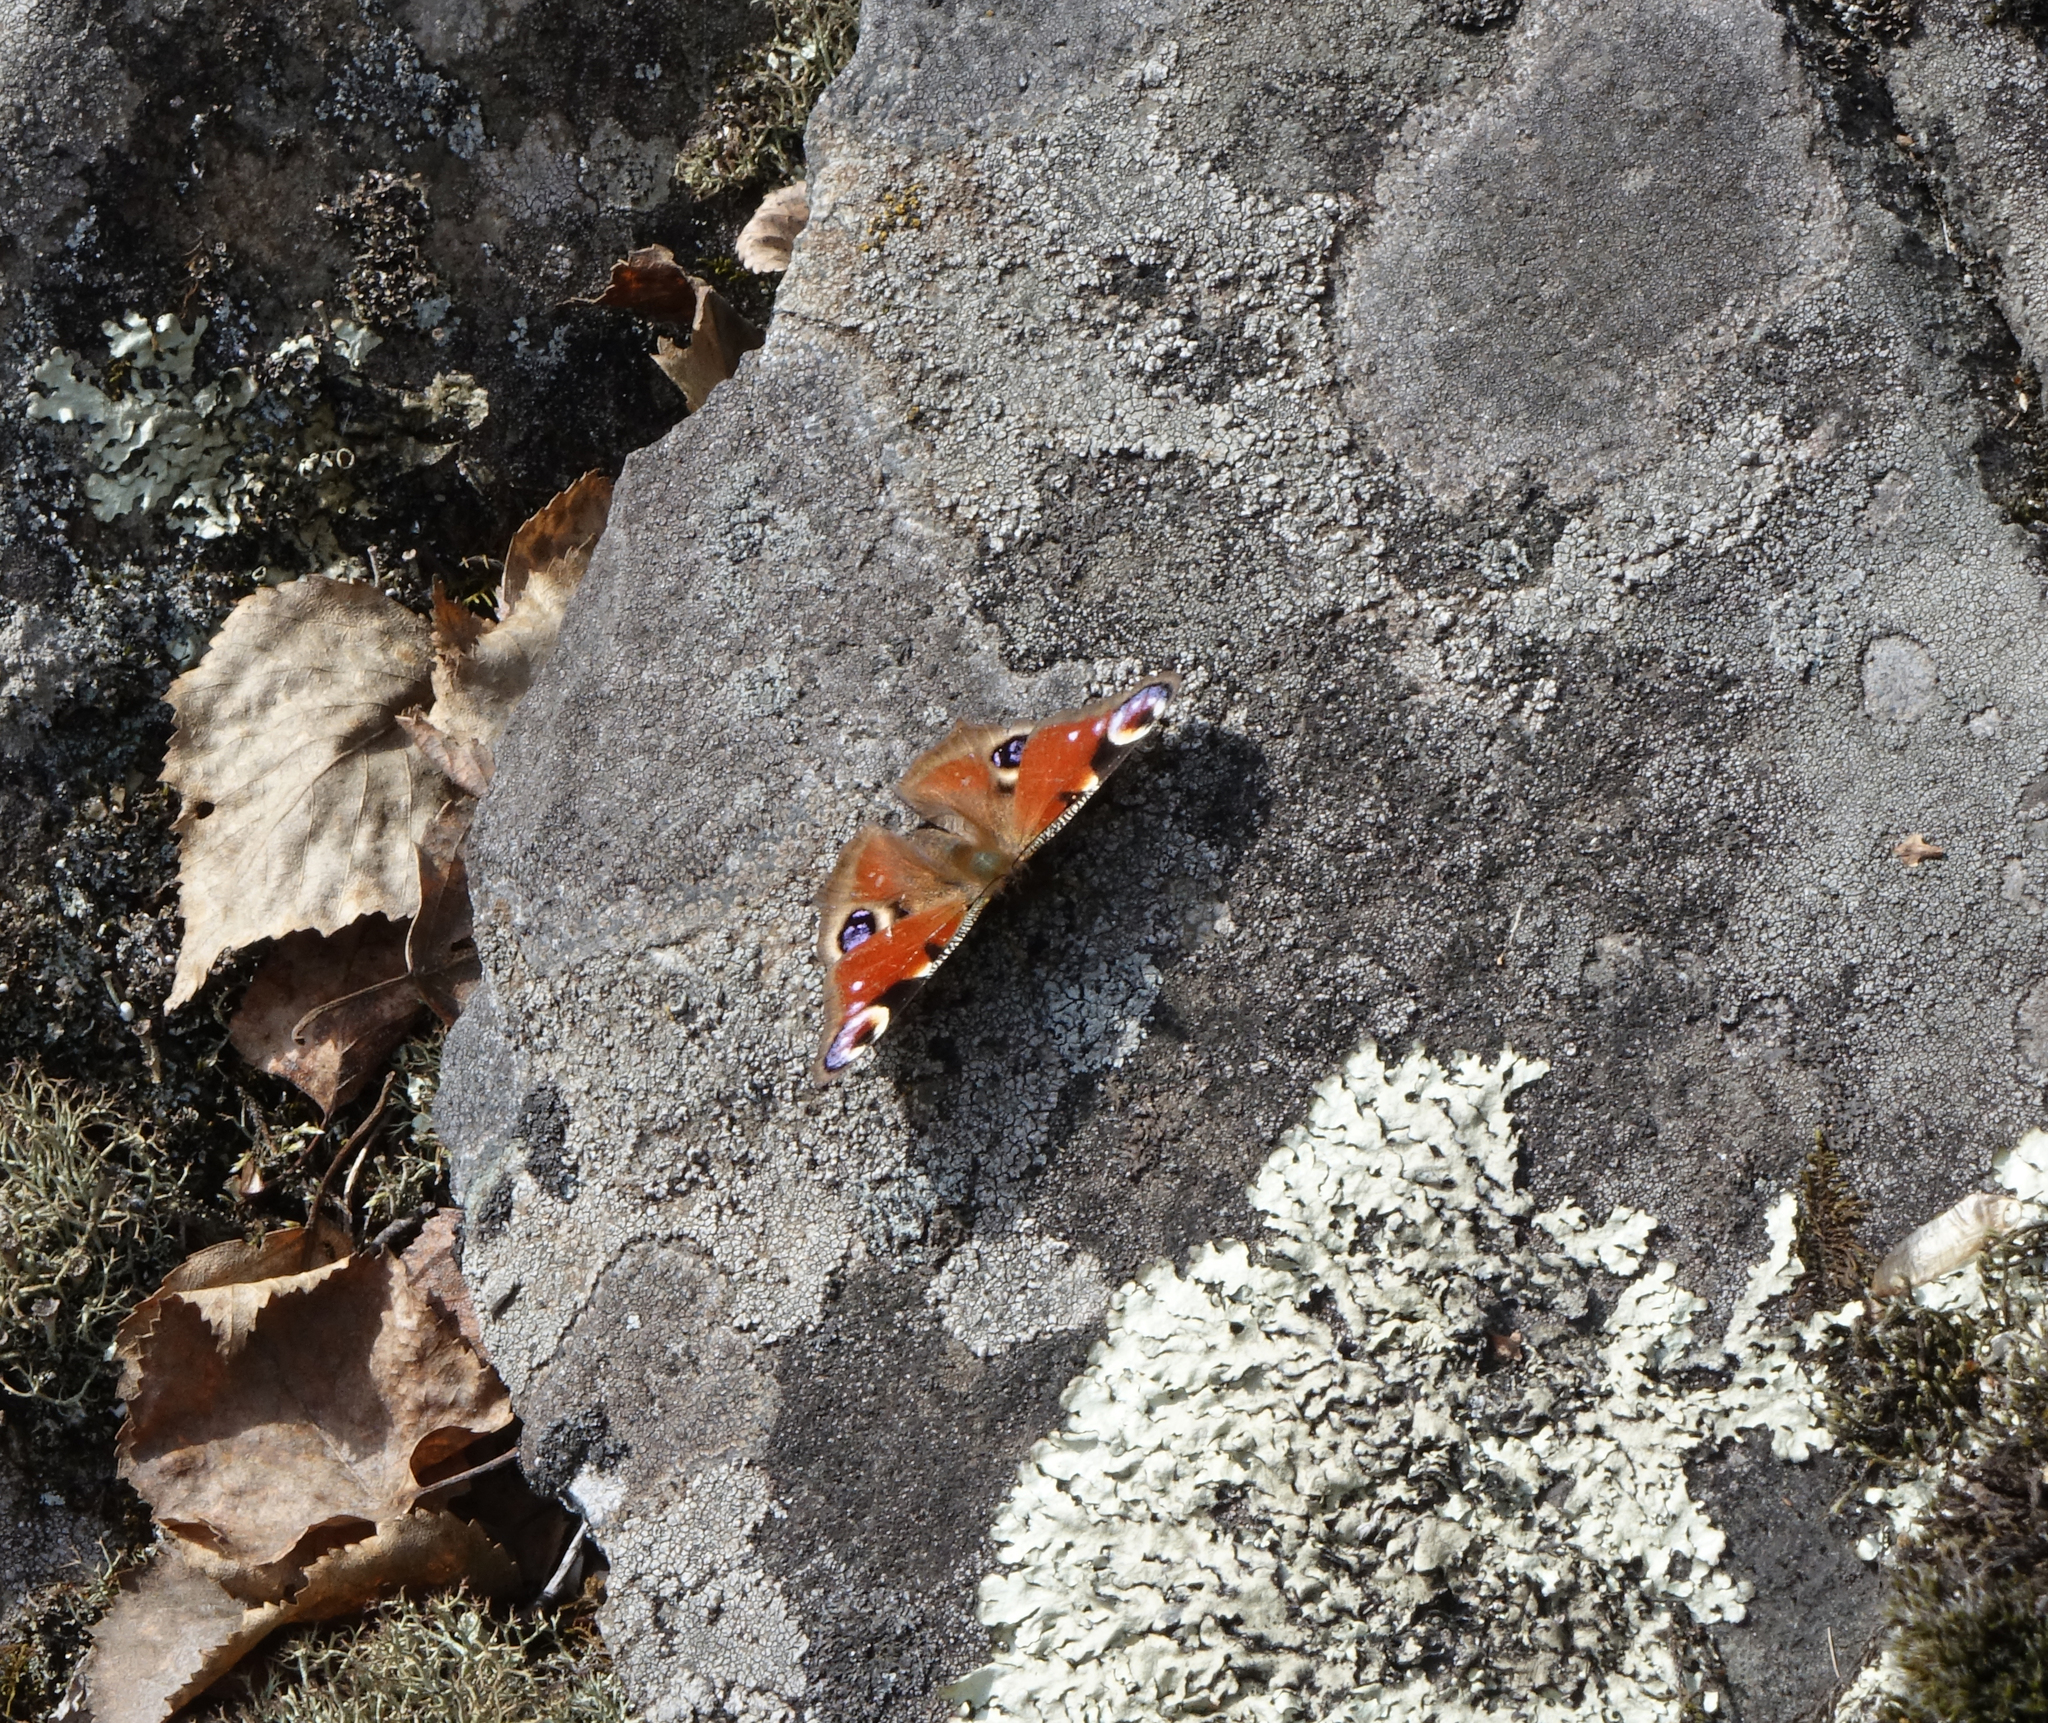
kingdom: Animalia
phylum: Arthropoda
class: Insecta
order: Lepidoptera
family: Nymphalidae
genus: Aglais
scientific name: Aglais io
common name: Peacock
